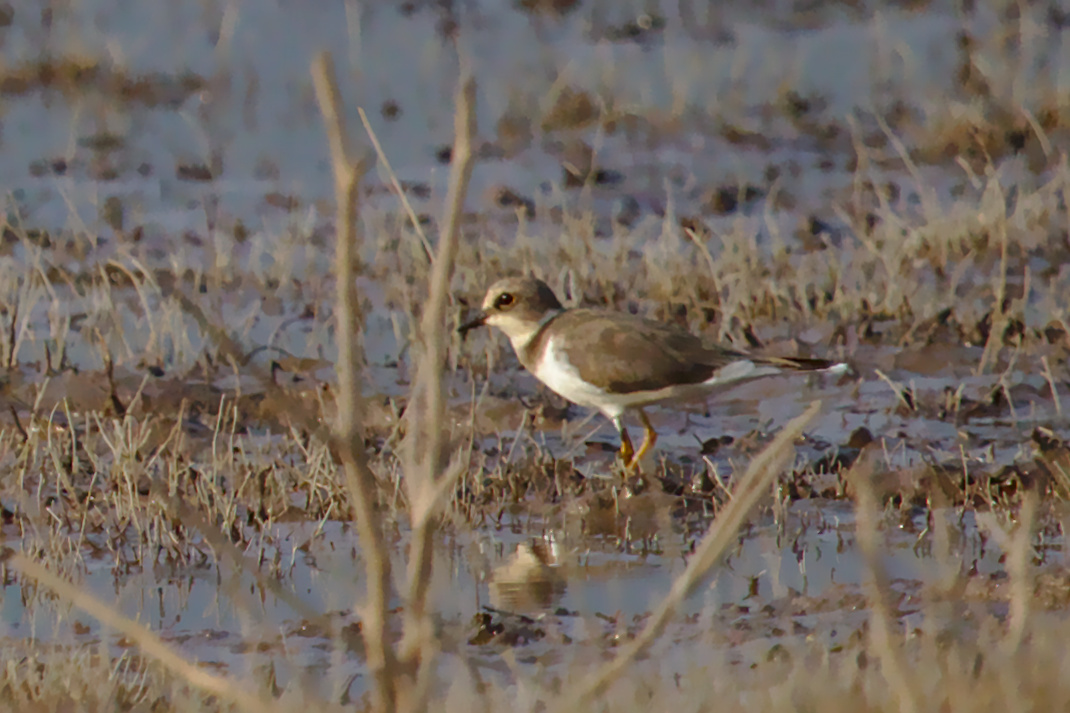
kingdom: Animalia
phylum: Chordata
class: Aves
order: Charadriiformes
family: Charadriidae
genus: Charadrius
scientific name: Charadrius dubius
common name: Little ringed plover
